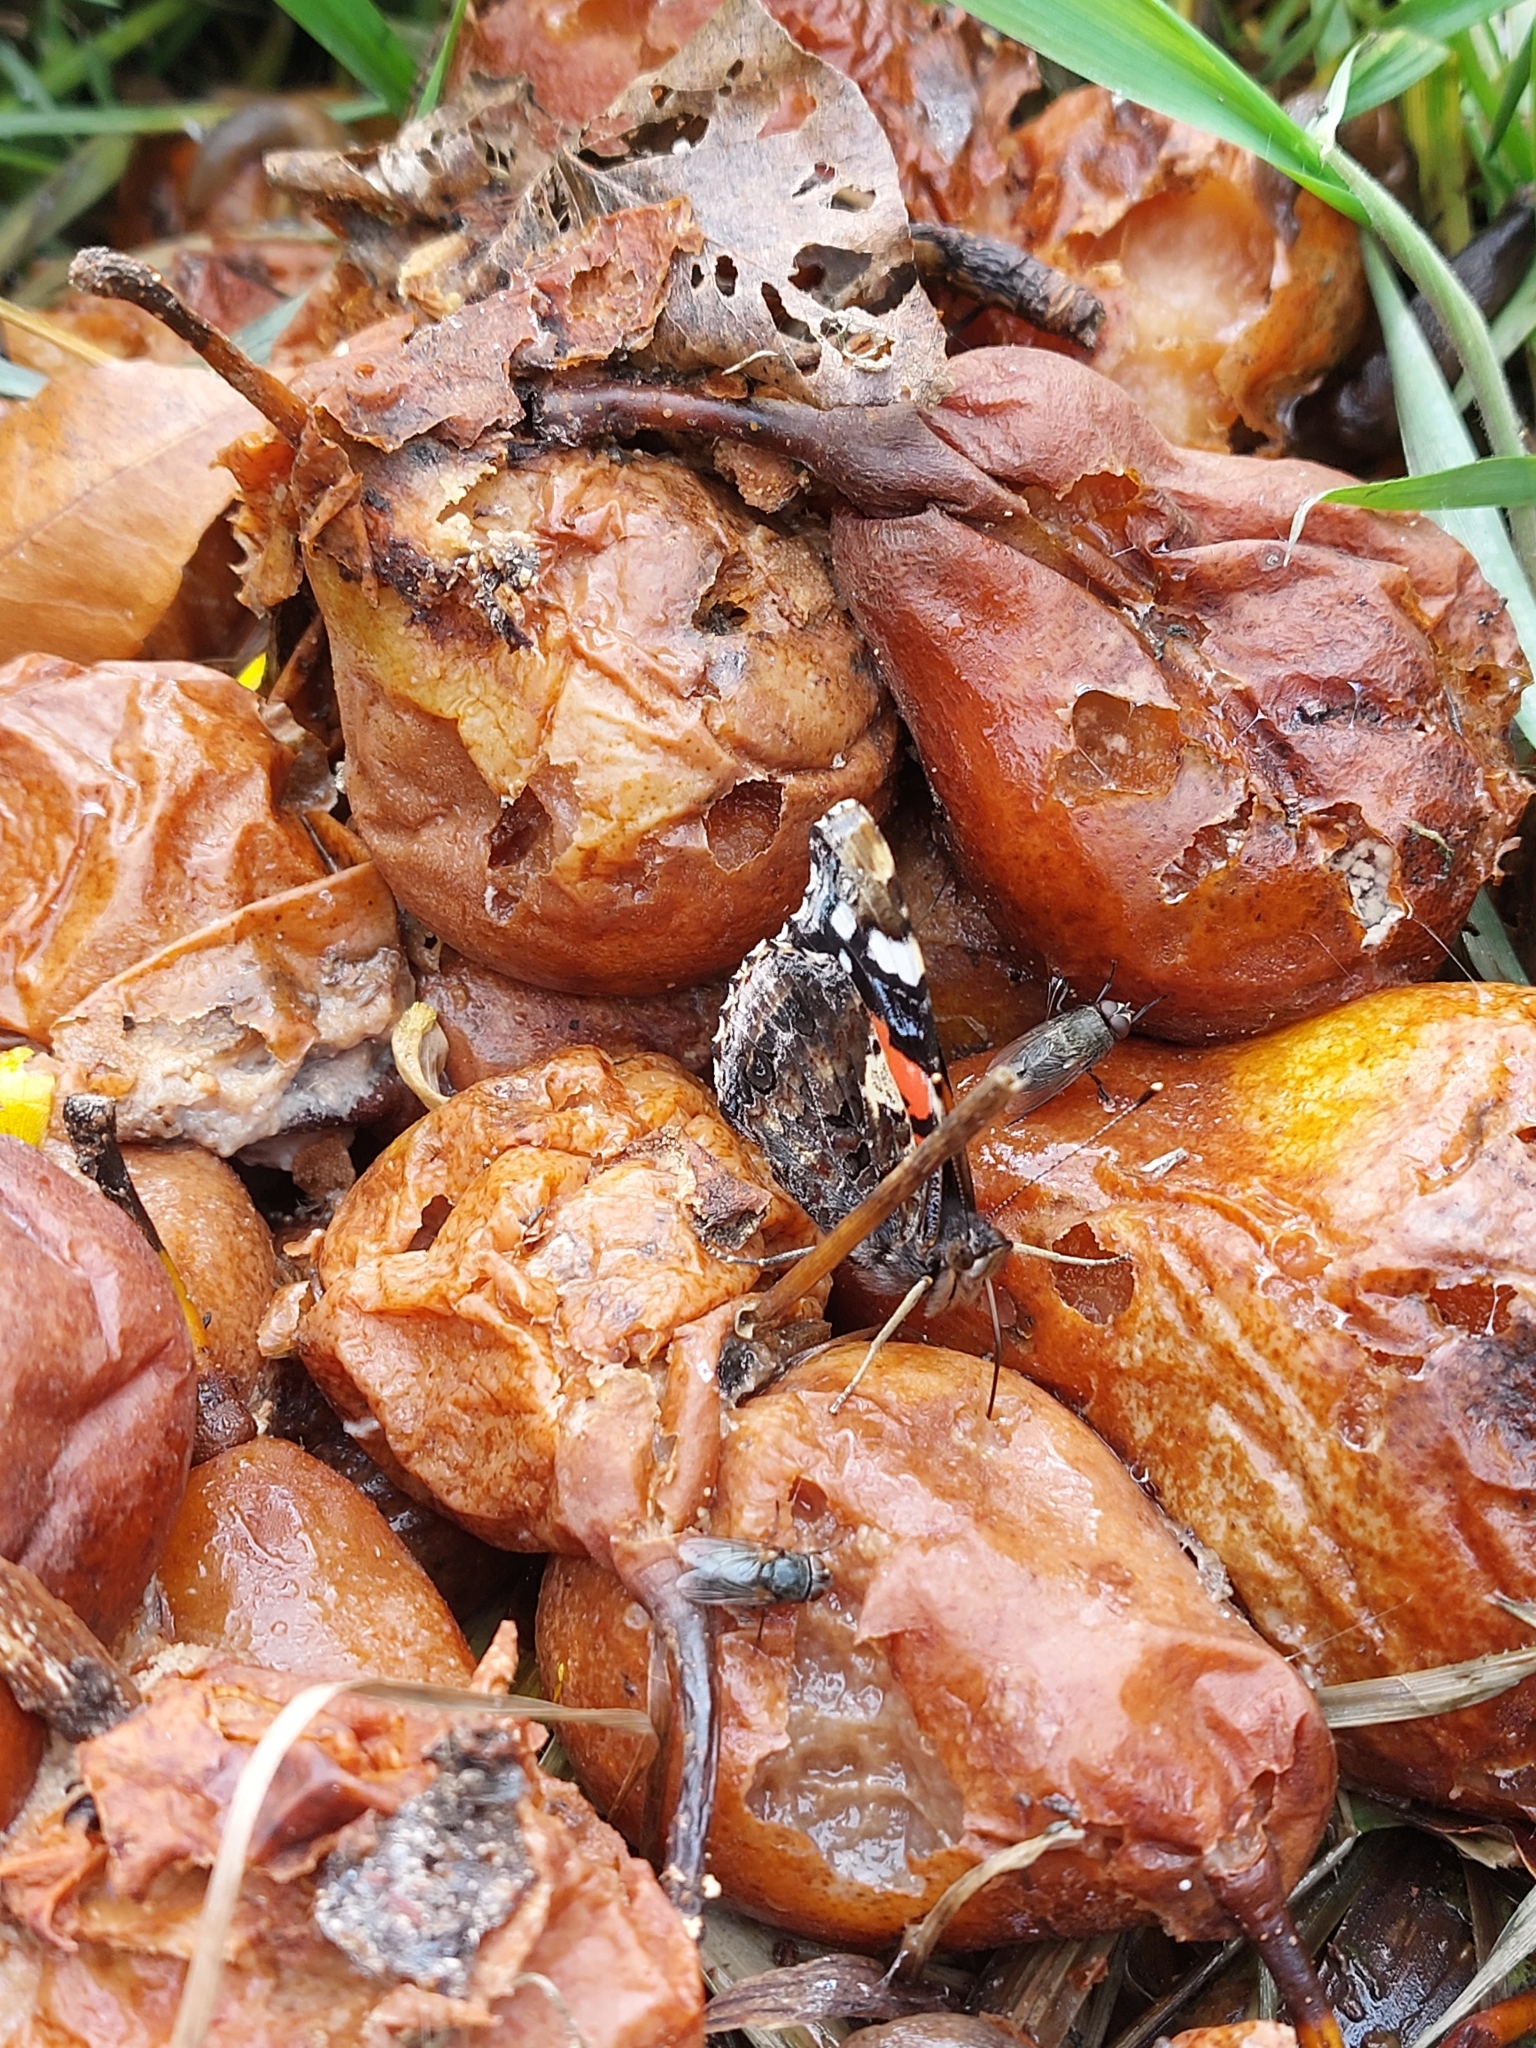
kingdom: Animalia
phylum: Arthropoda
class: Insecta
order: Lepidoptera
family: Nymphalidae
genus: Vanessa
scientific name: Vanessa atalanta
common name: Red admiral
